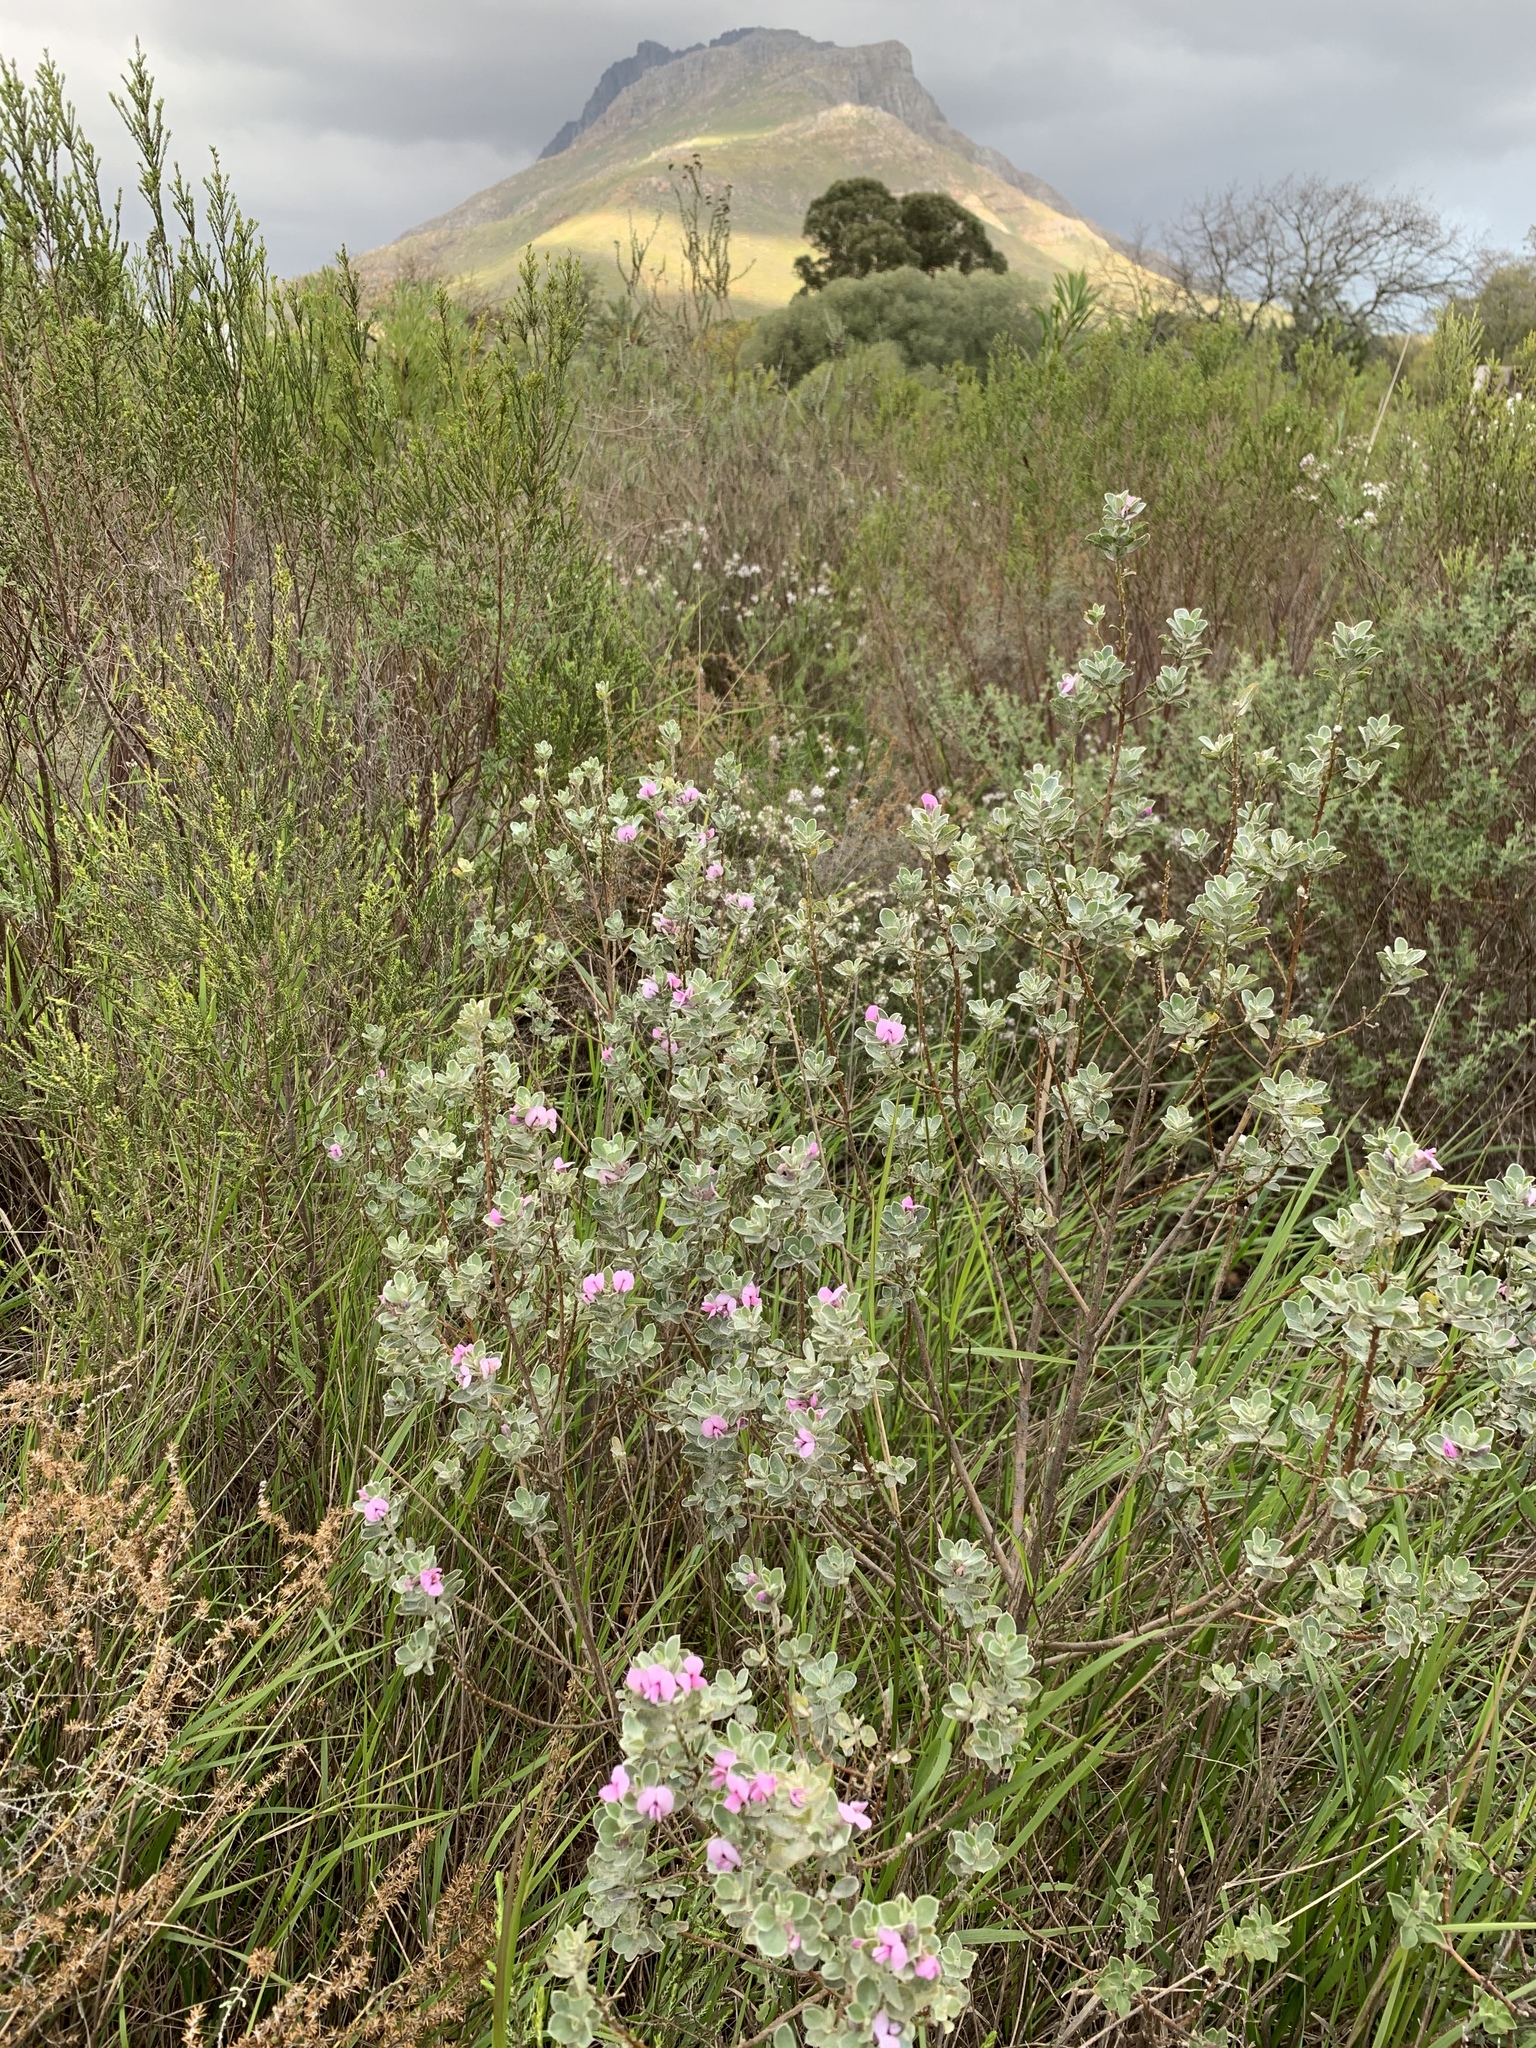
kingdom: Plantae
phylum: Tracheophyta
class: Magnoliopsida
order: Fabales
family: Fabaceae
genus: Podalyria
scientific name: Podalyria sericea
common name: Silver podalyria
